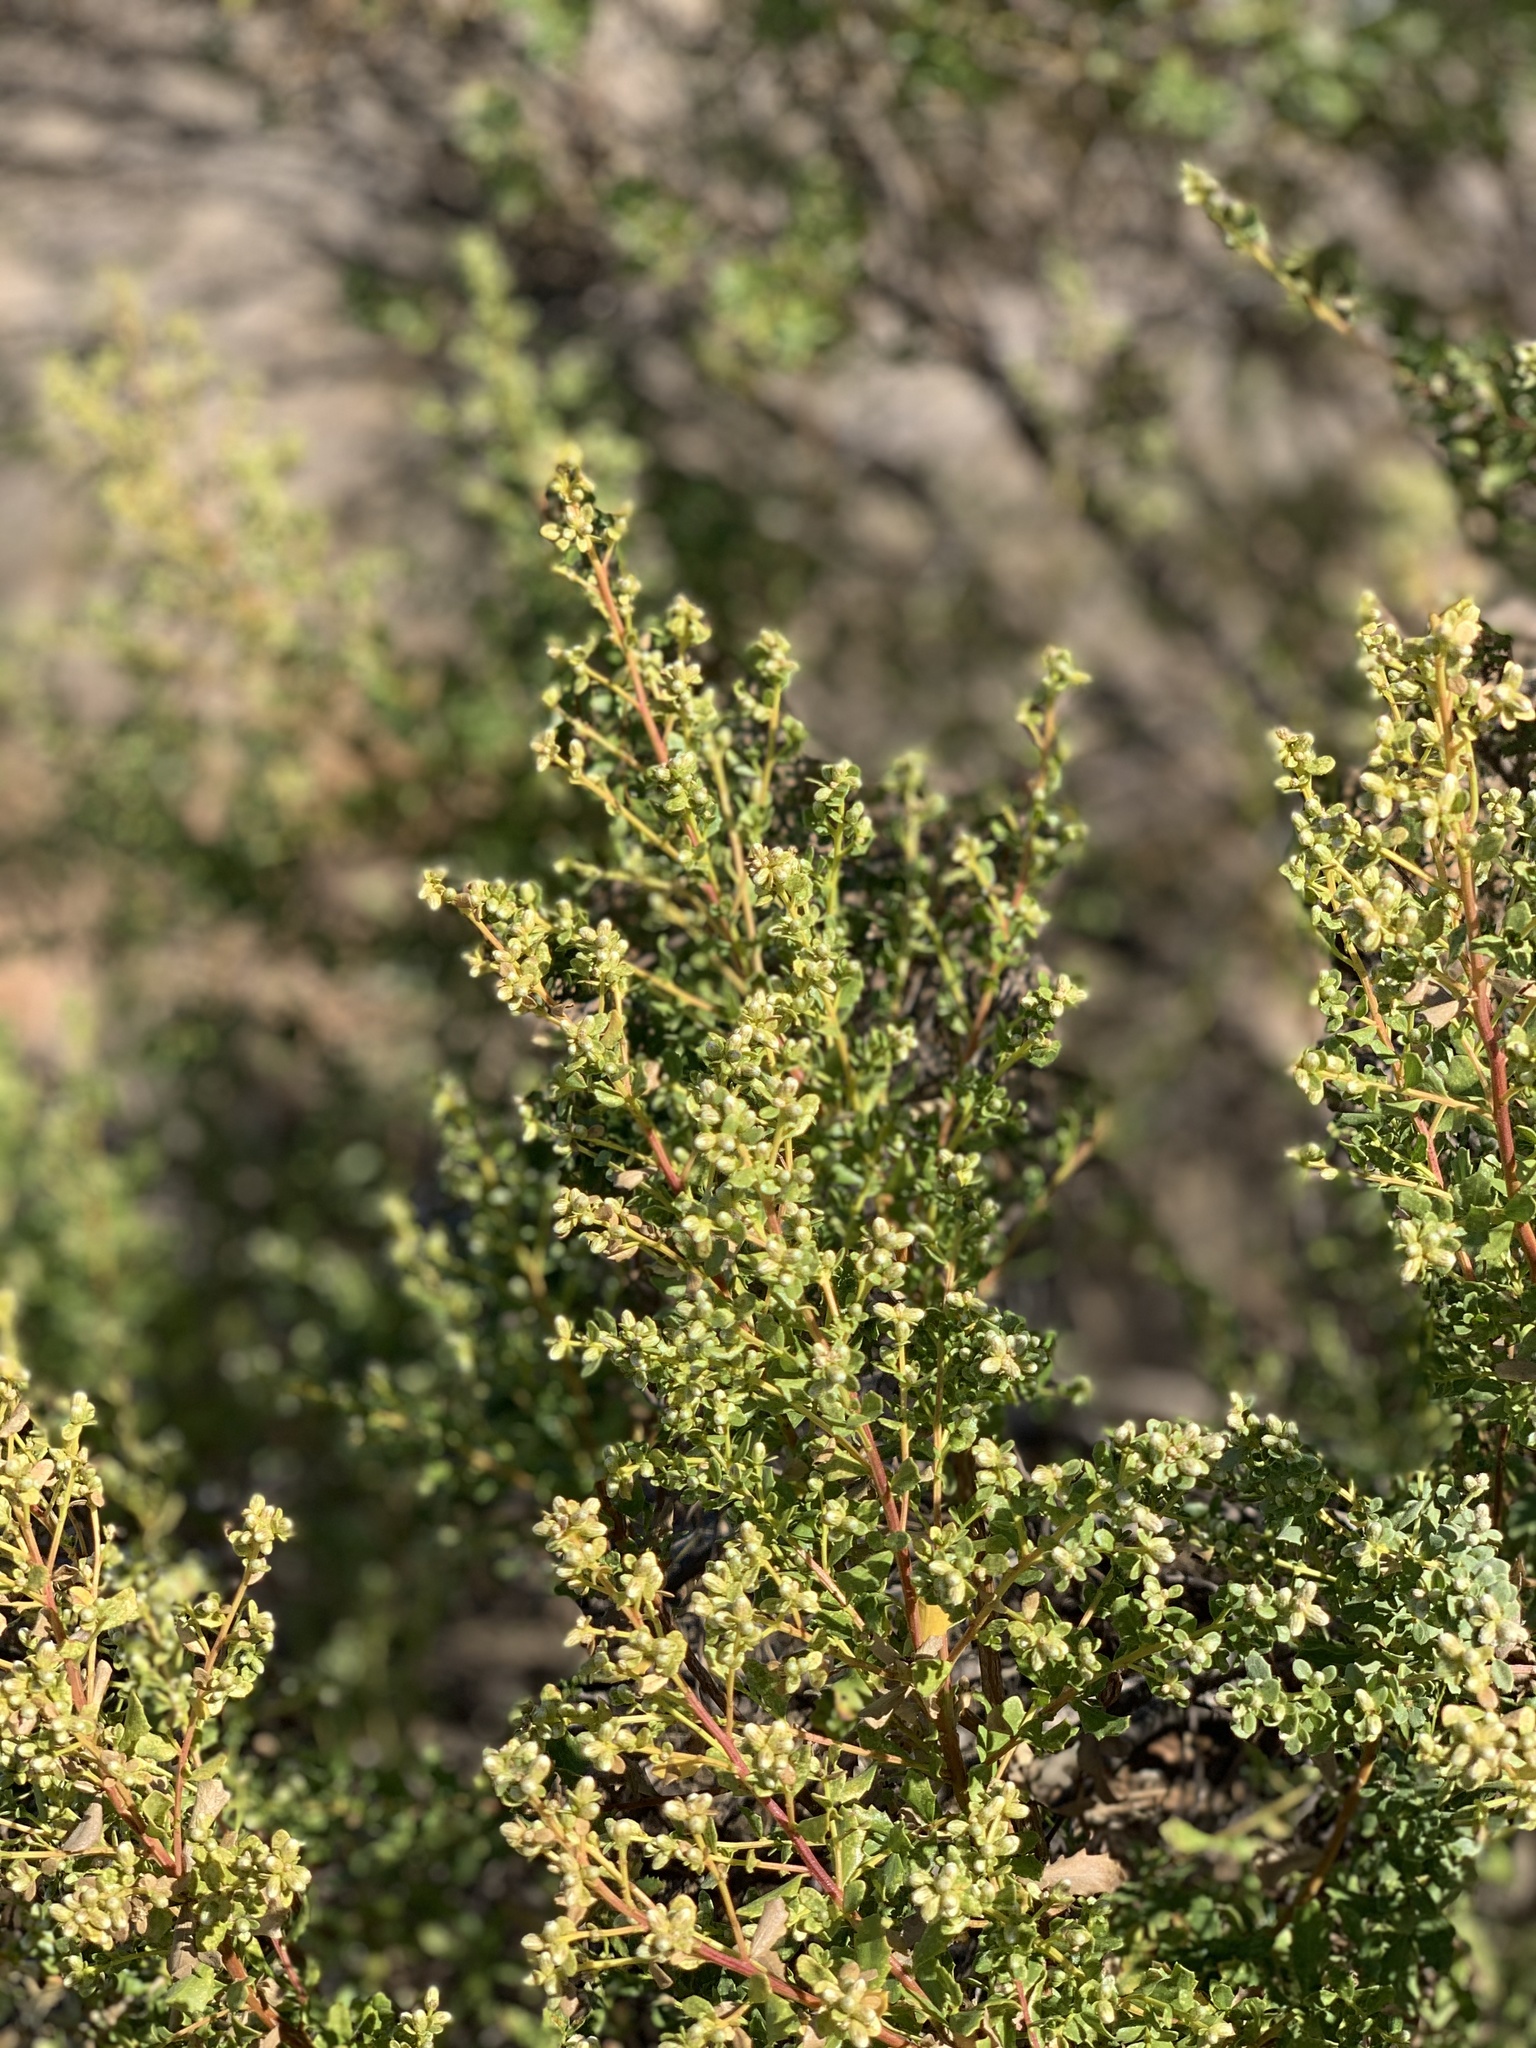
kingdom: Plantae
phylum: Tracheophyta
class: Magnoliopsida
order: Asterales
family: Asteraceae
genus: Baccharis
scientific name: Baccharis pilularis
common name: Coyotebrush
